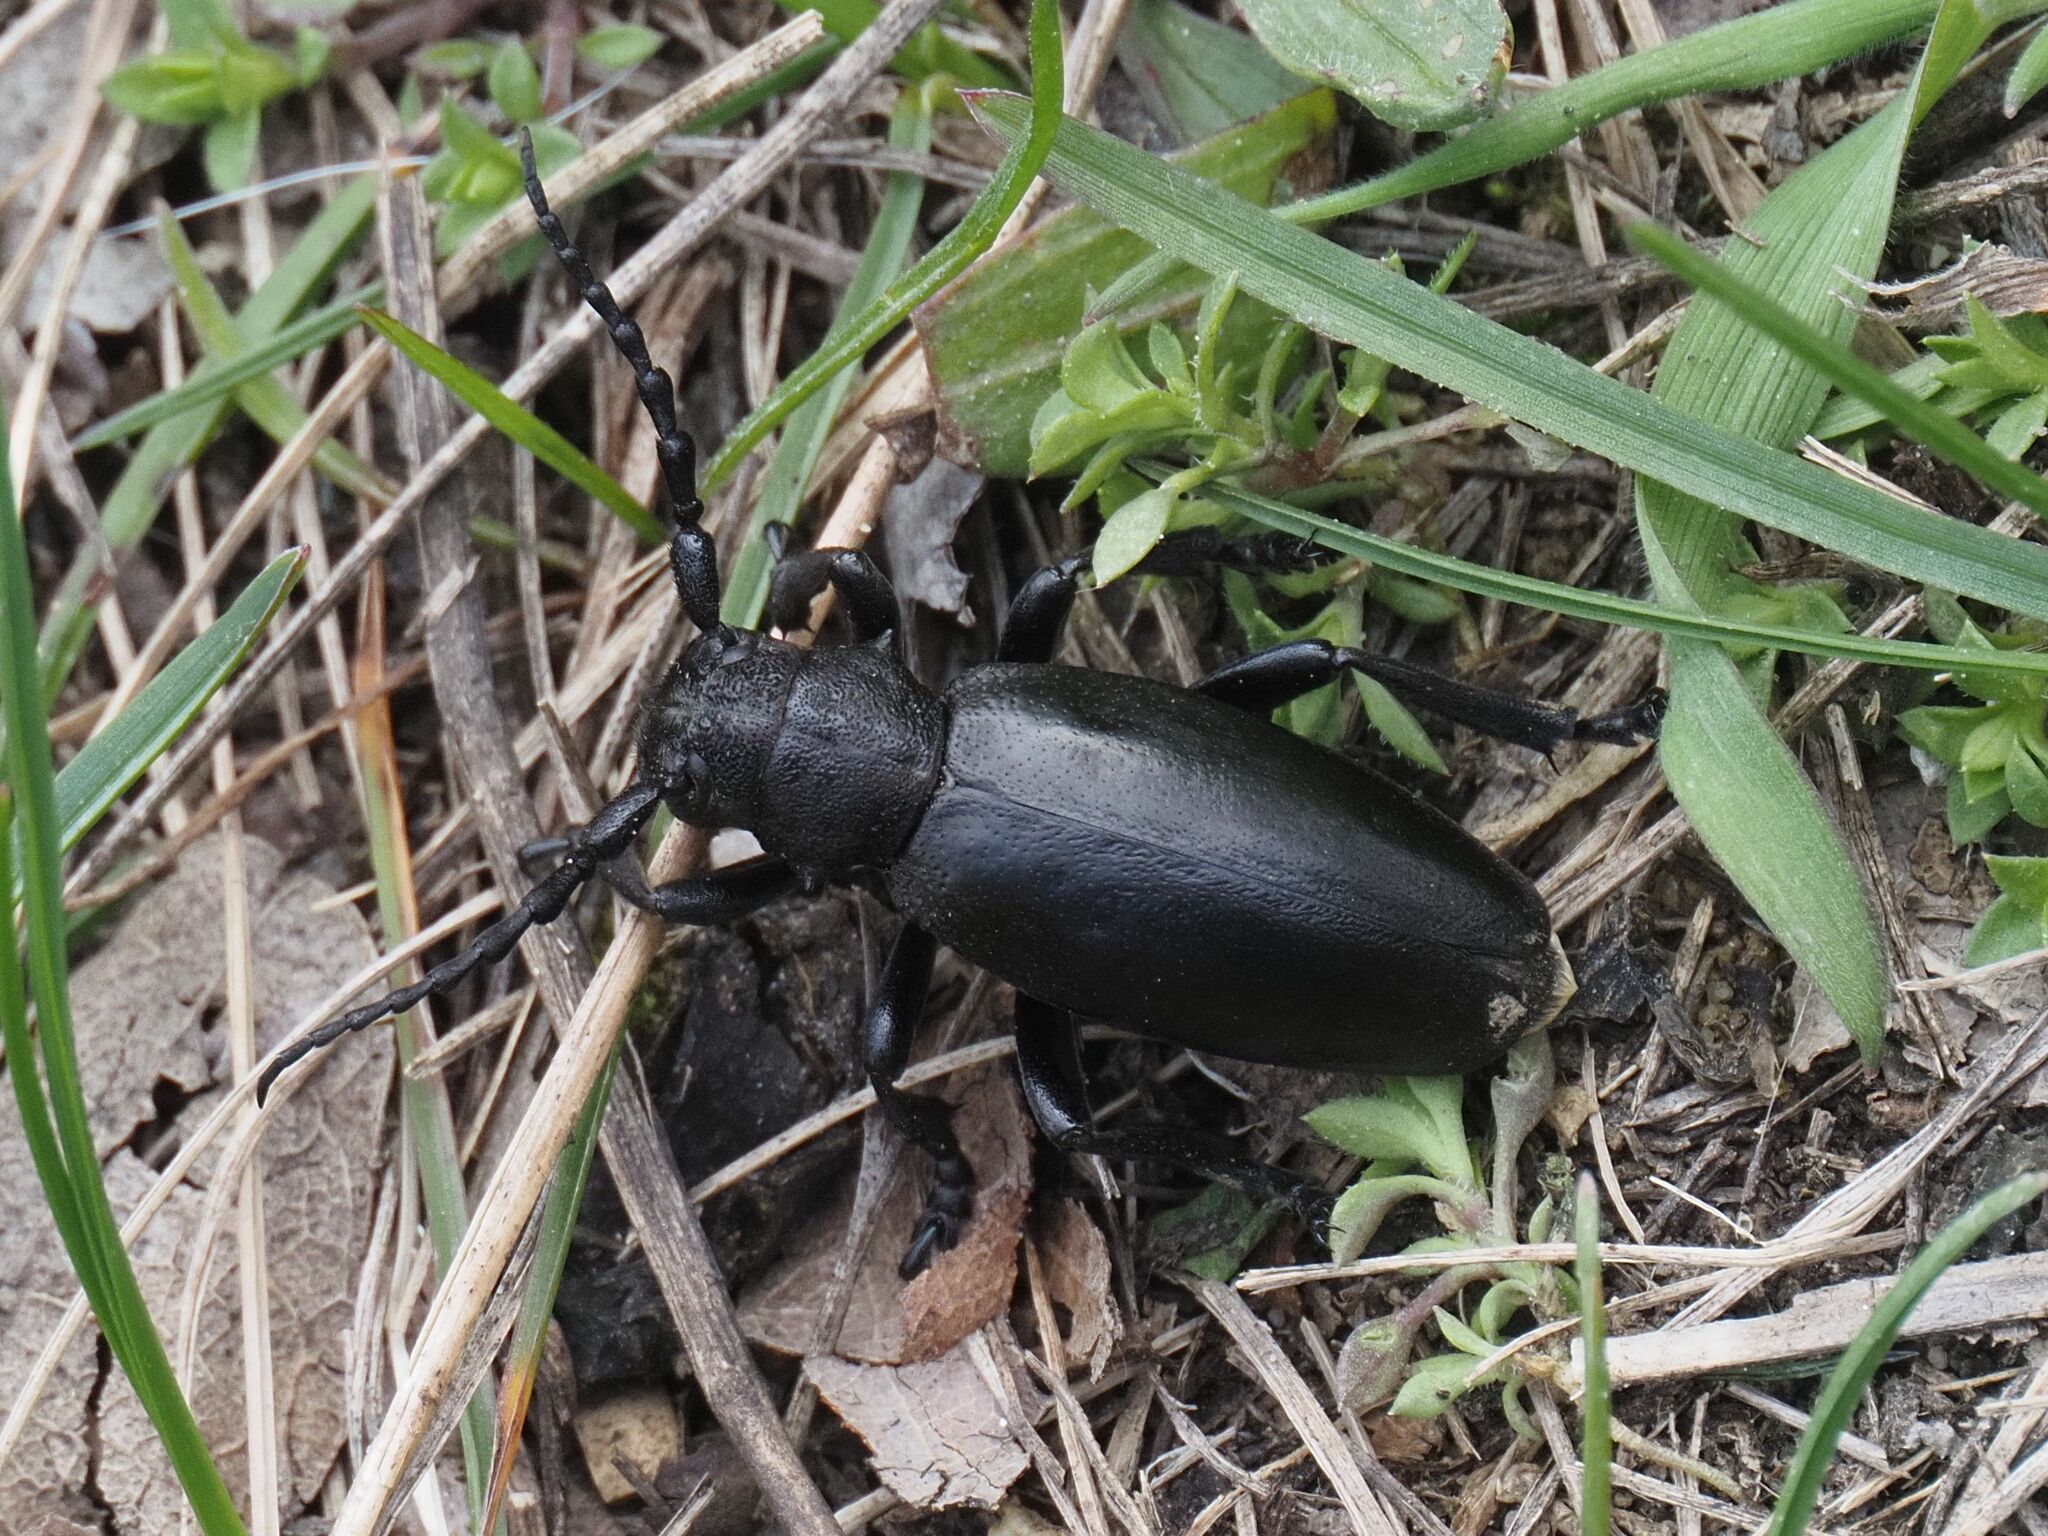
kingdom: Animalia
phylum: Arthropoda
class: Insecta
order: Coleoptera
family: Cerambycidae
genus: Dorcadion
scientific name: Dorcadion aethiops
